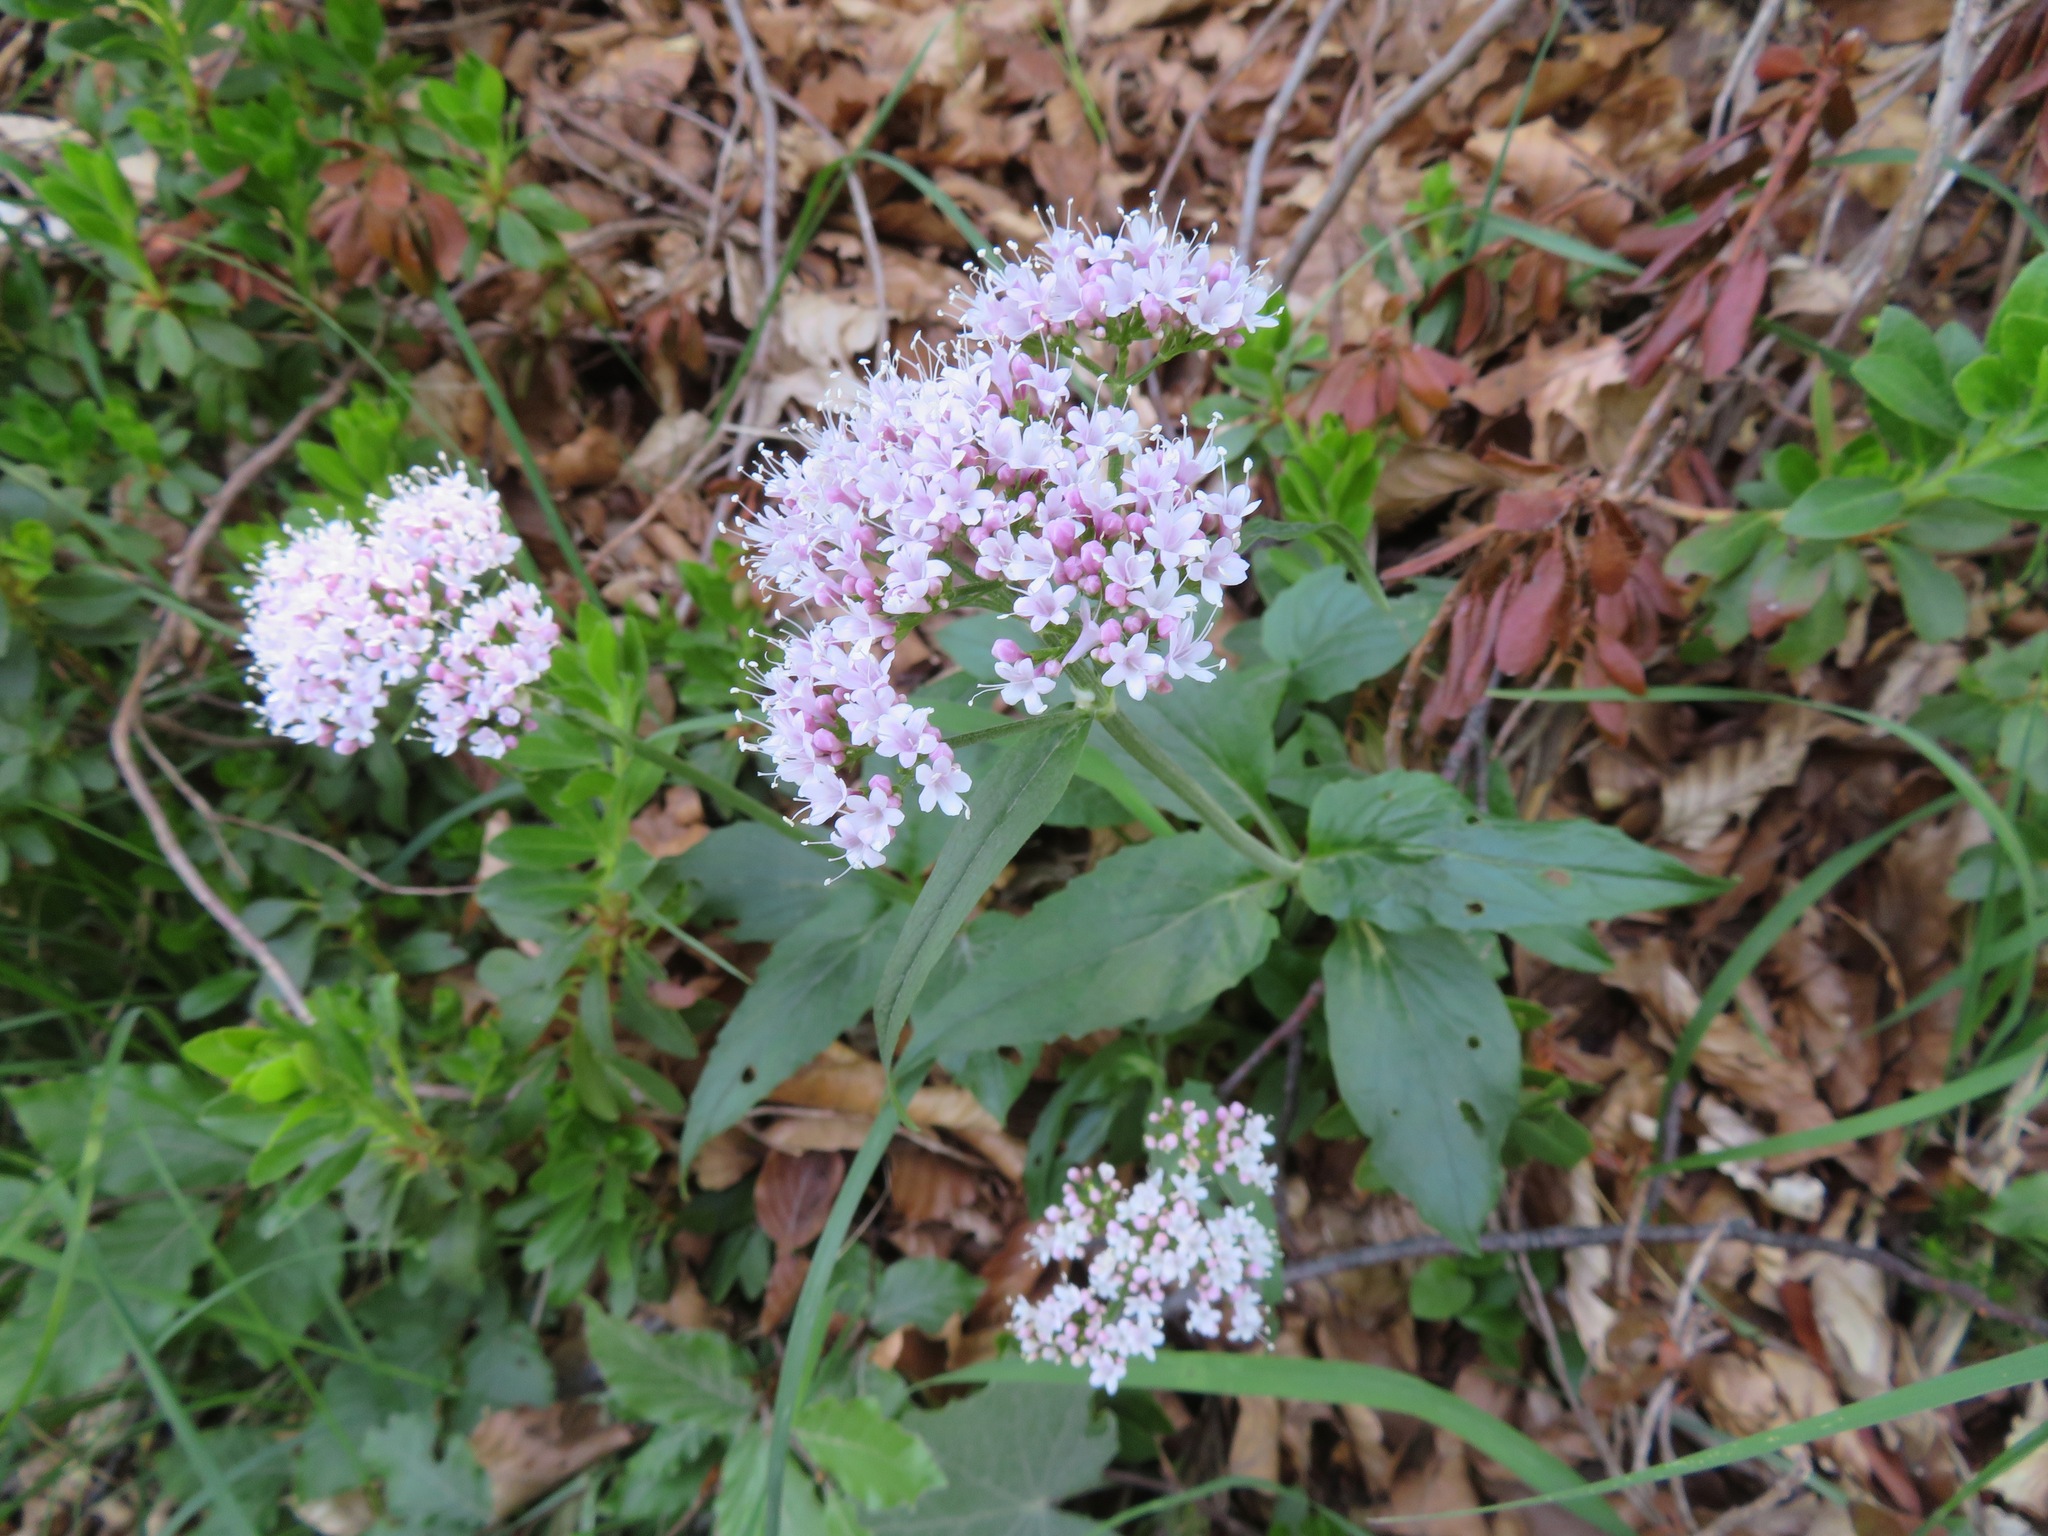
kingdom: Plantae
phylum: Tracheophyta
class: Magnoliopsida
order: Dipsacales
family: Caprifoliaceae
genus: Valeriana
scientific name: Valeriana montana
